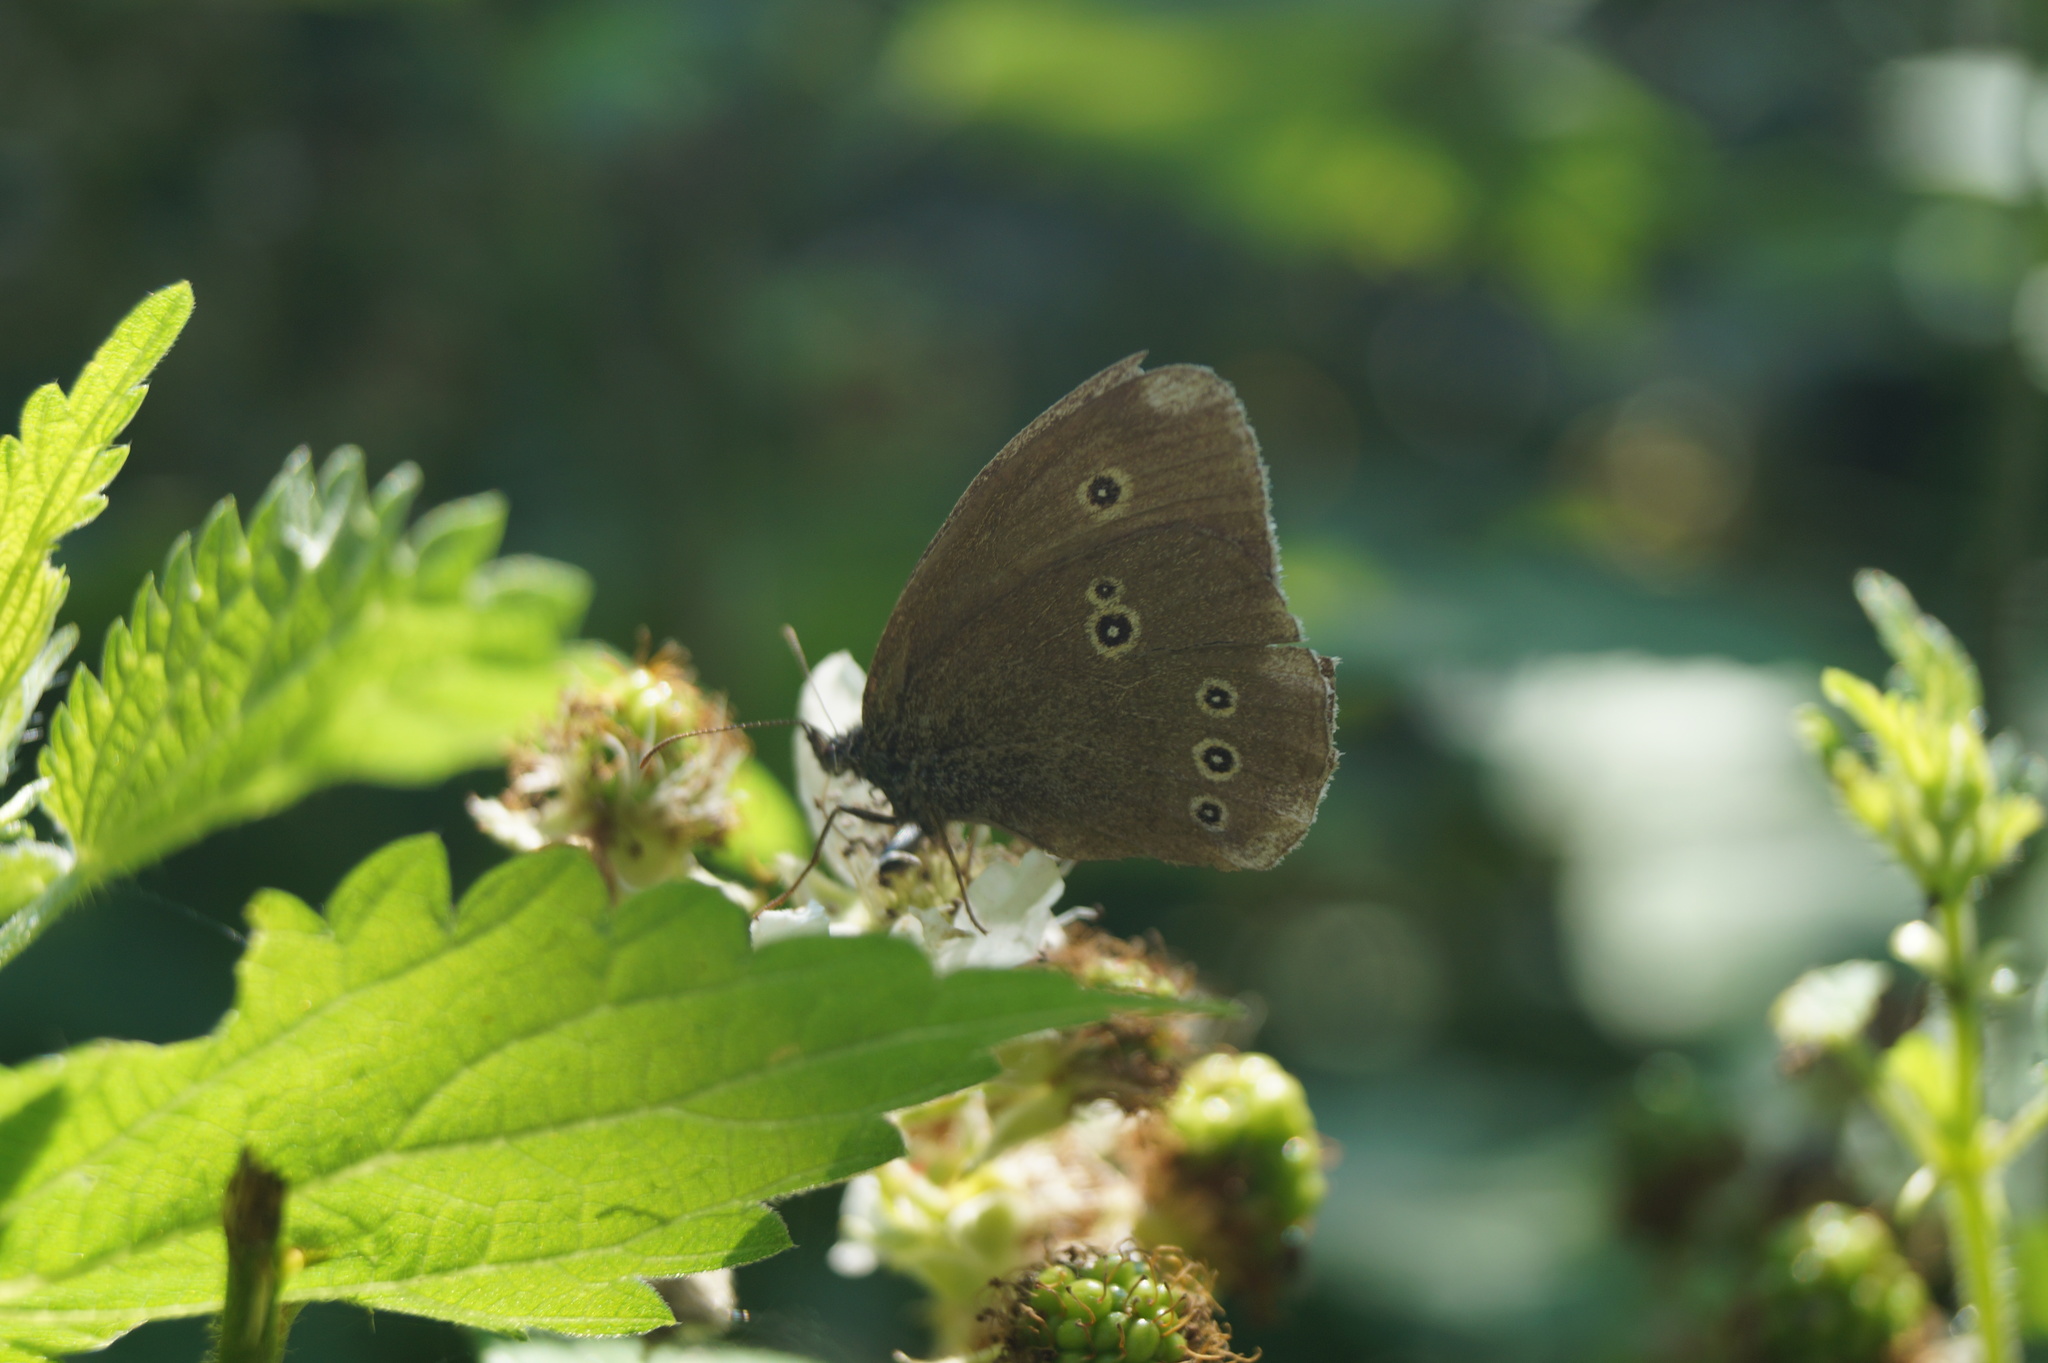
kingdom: Animalia
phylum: Arthropoda
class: Insecta
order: Lepidoptera
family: Nymphalidae
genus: Aphantopus
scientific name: Aphantopus hyperantus
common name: Ringlet
